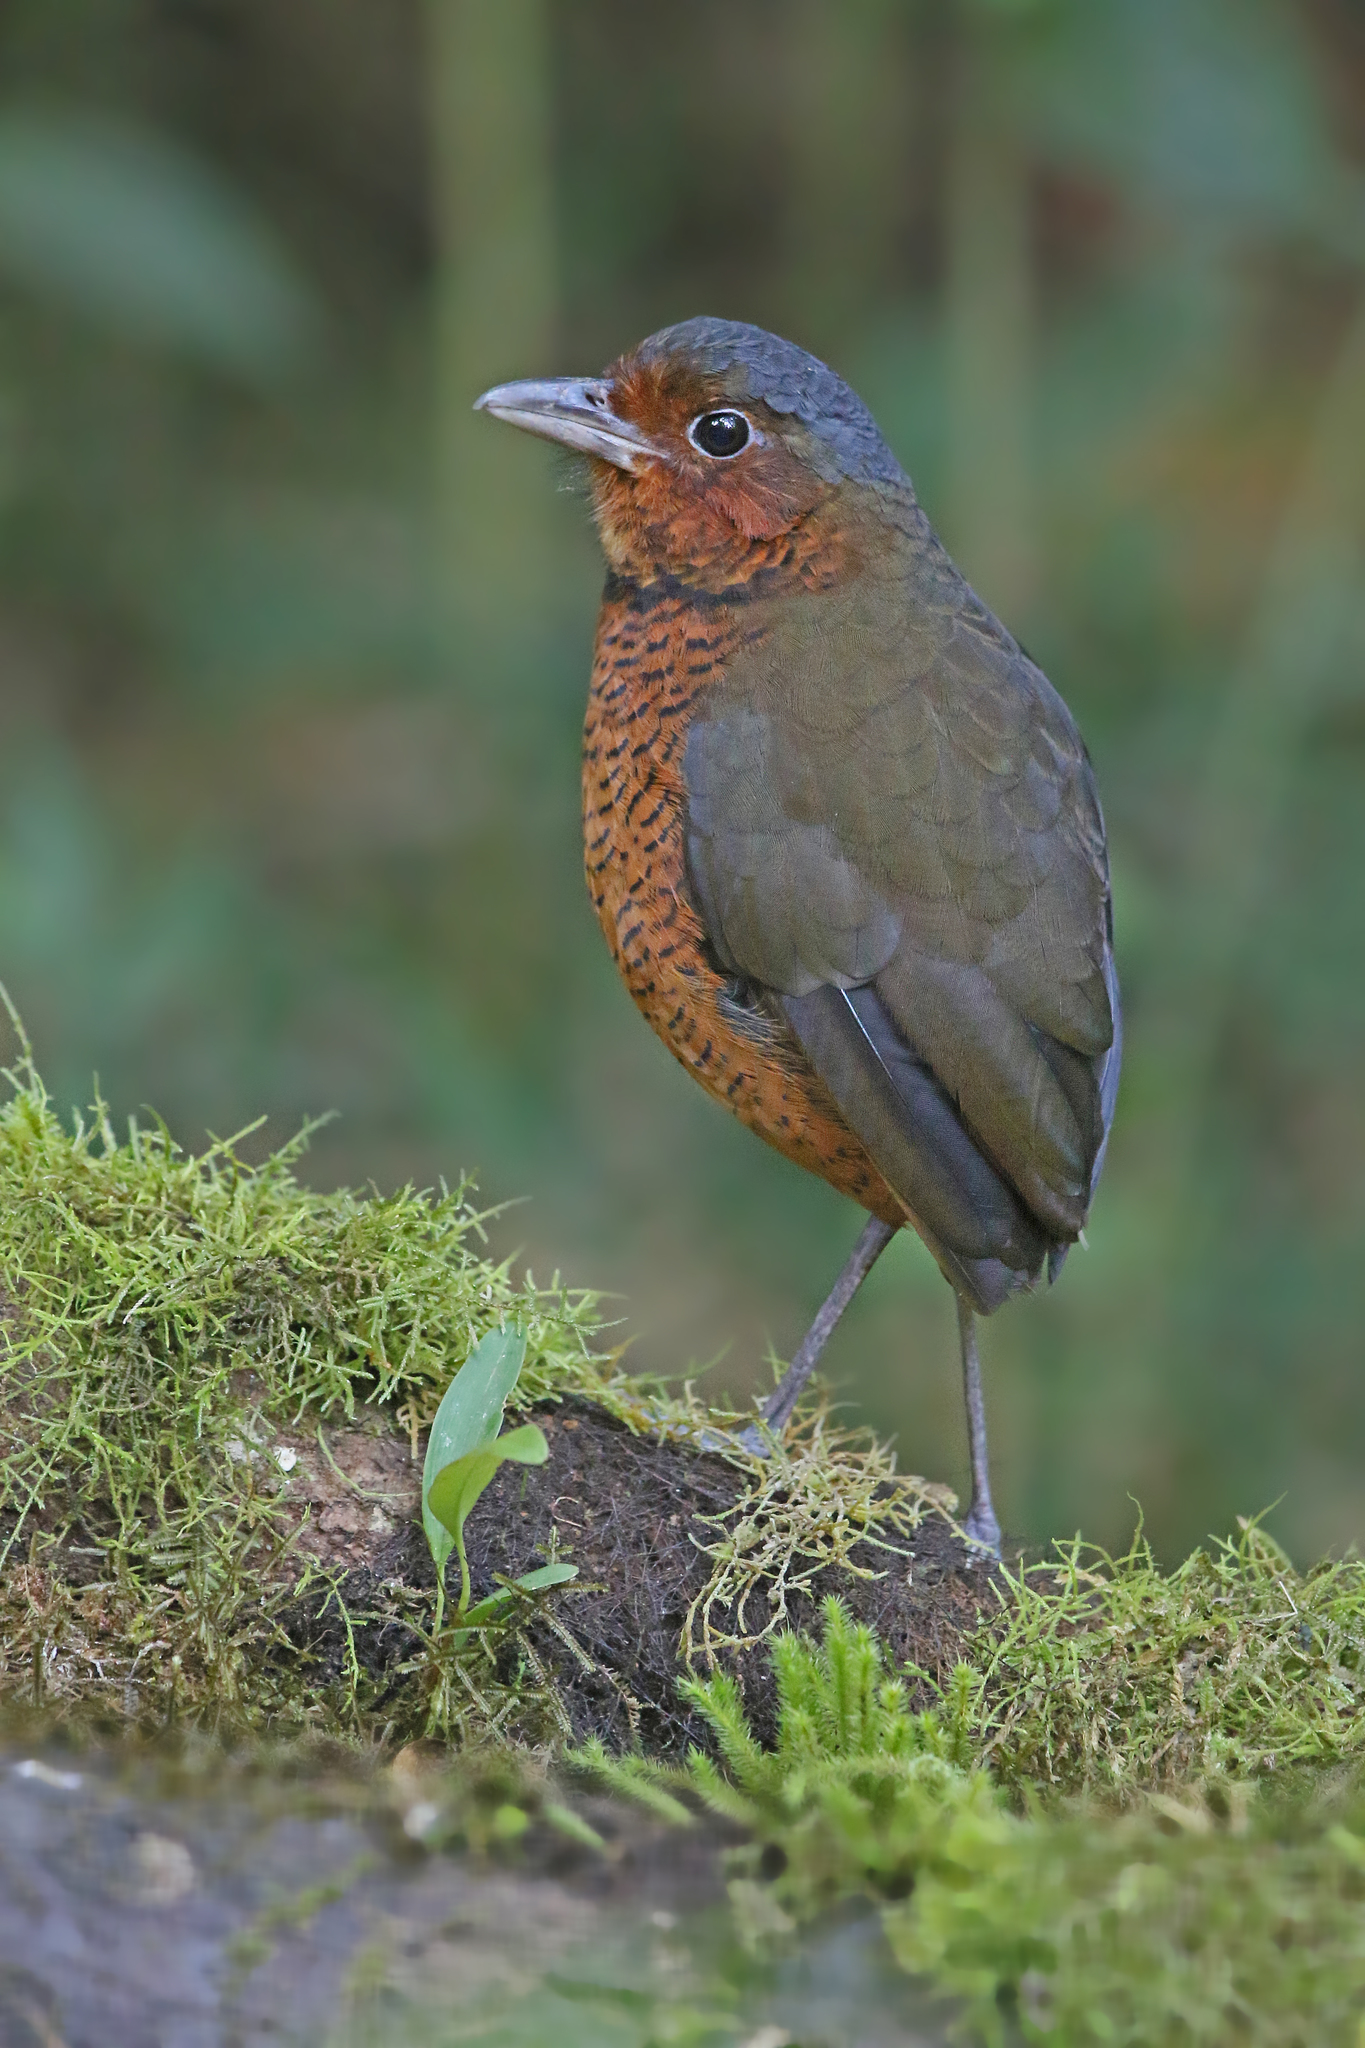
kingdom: Animalia
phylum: Chordata
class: Aves
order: Passeriformes
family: Grallariidae
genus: Grallaria
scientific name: Grallaria gigantea
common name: Giant antpitta
